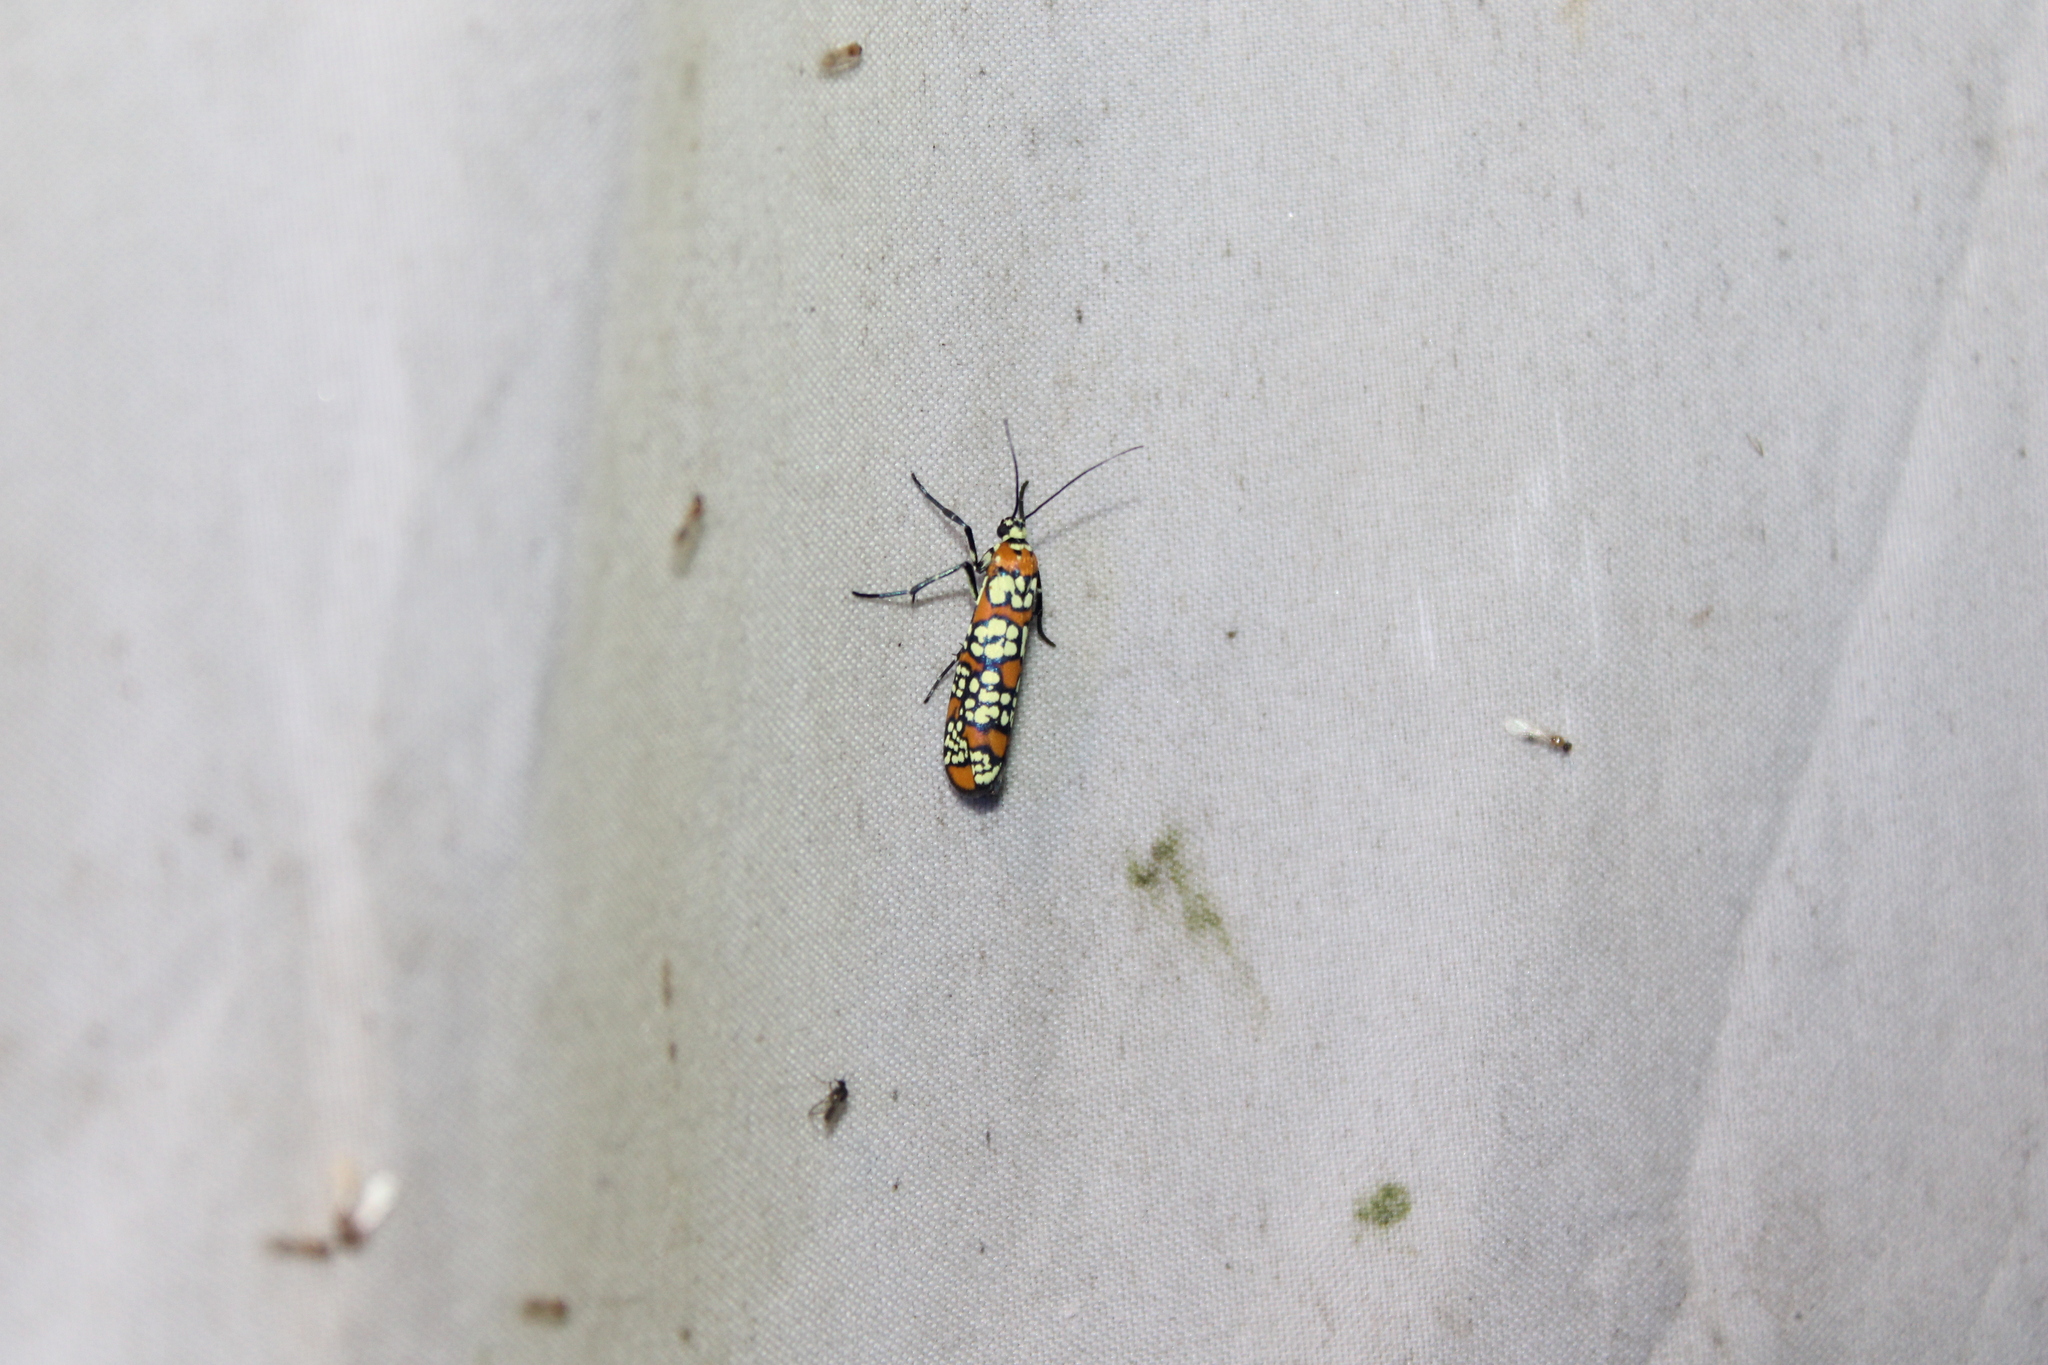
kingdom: Animalia
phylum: Arthropoda
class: Insecta
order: Lepidoptera
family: Attevidae
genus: Atteva
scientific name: Atteva punctella
